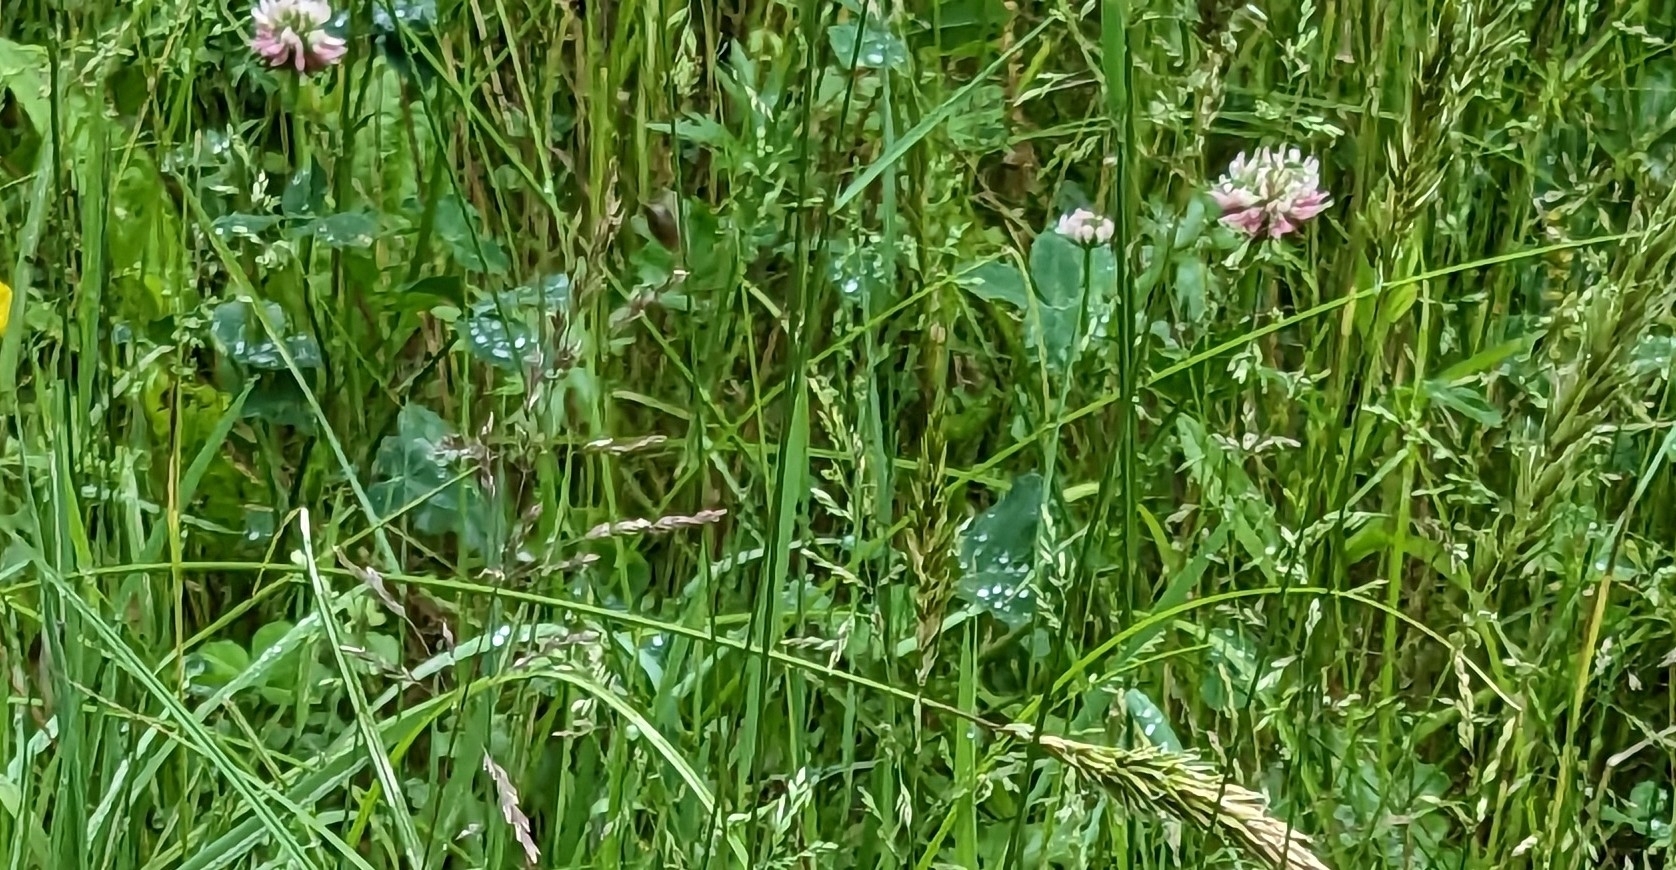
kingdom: Plantae
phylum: Tracheophyta
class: Magnoliopsida
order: Fabales
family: Fabaceae
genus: Trifolium
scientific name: Trifolium hybridum
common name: Alsike clover
